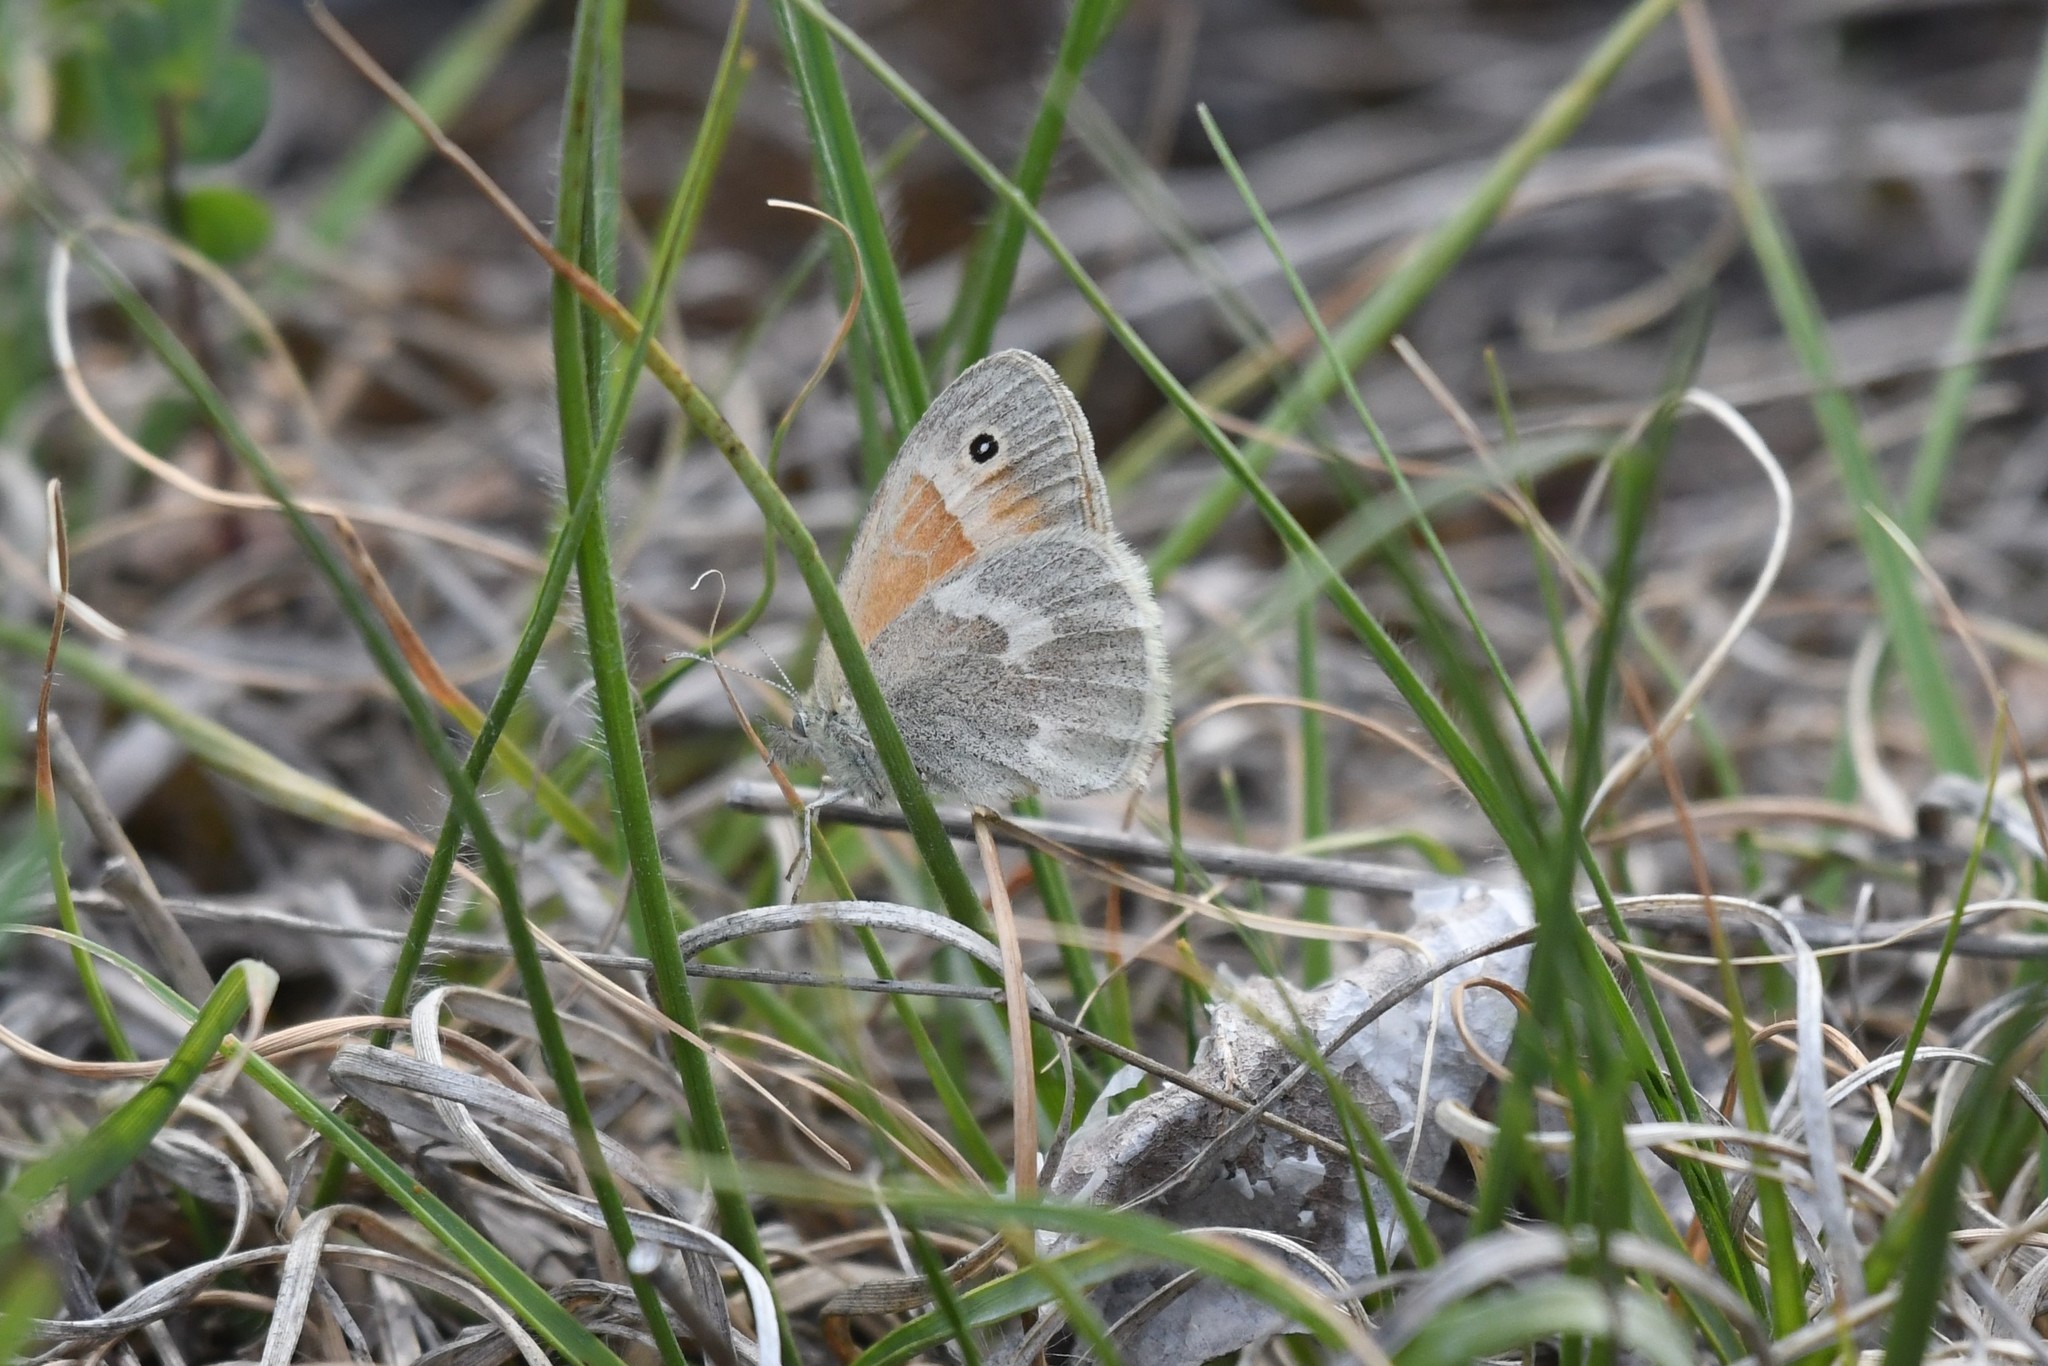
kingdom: Animalia
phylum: Arthropoda
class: Insecta
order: Lepidoptera
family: Nymphalidae
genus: Coenonympha
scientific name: Coenonympha california
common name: Common ringlet
